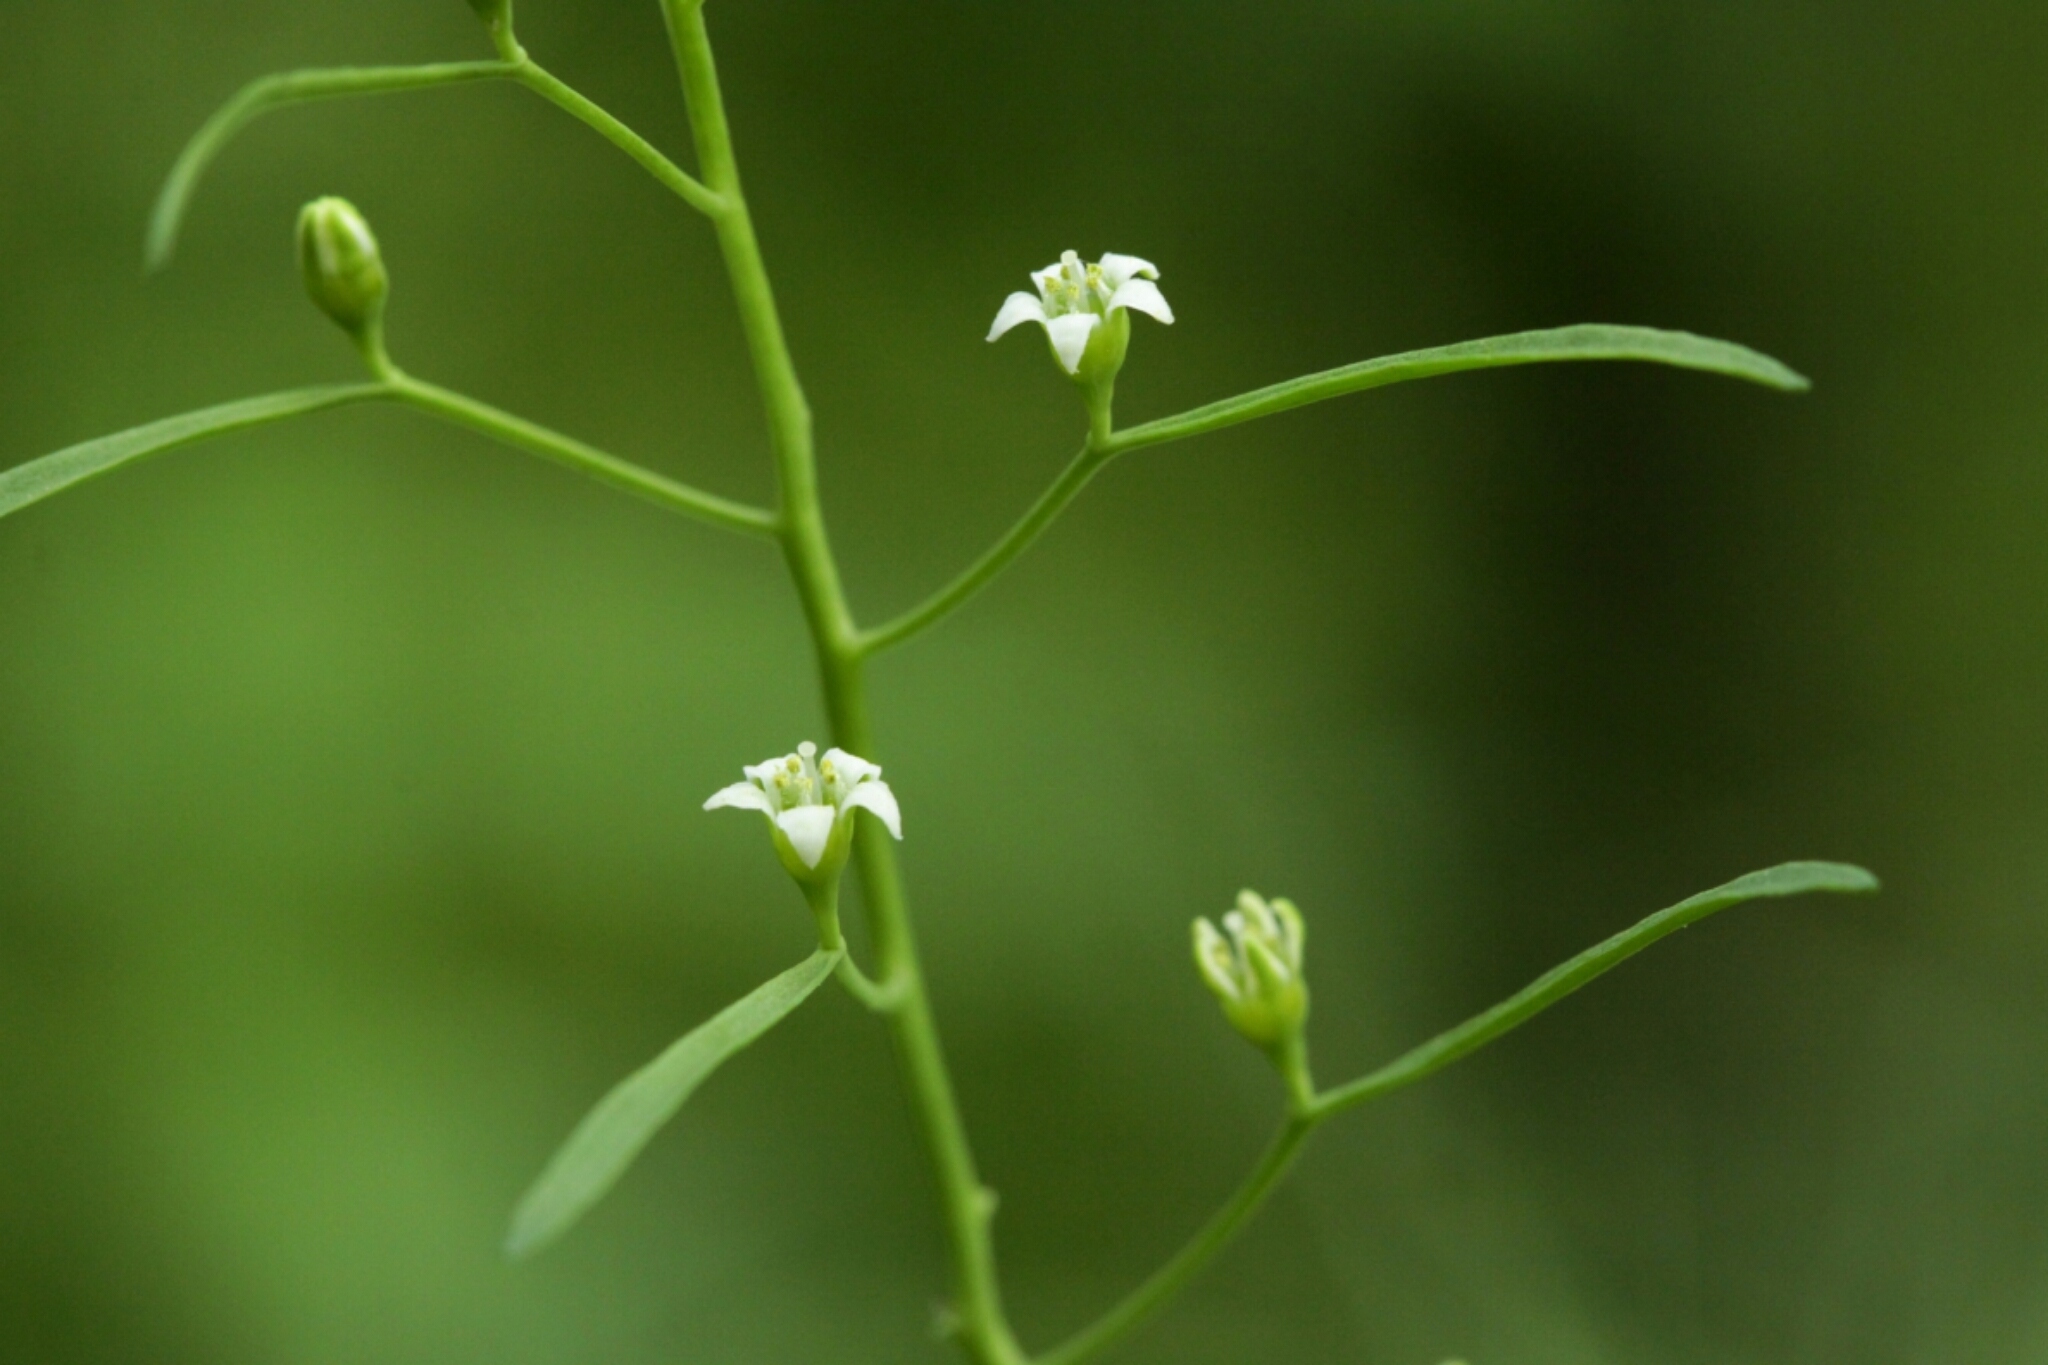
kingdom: Plantae
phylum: Tracheophyta
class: Magnoliopsida
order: Santalales
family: Thesiaceae
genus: Thesium
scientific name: Thesium ebracteatum
